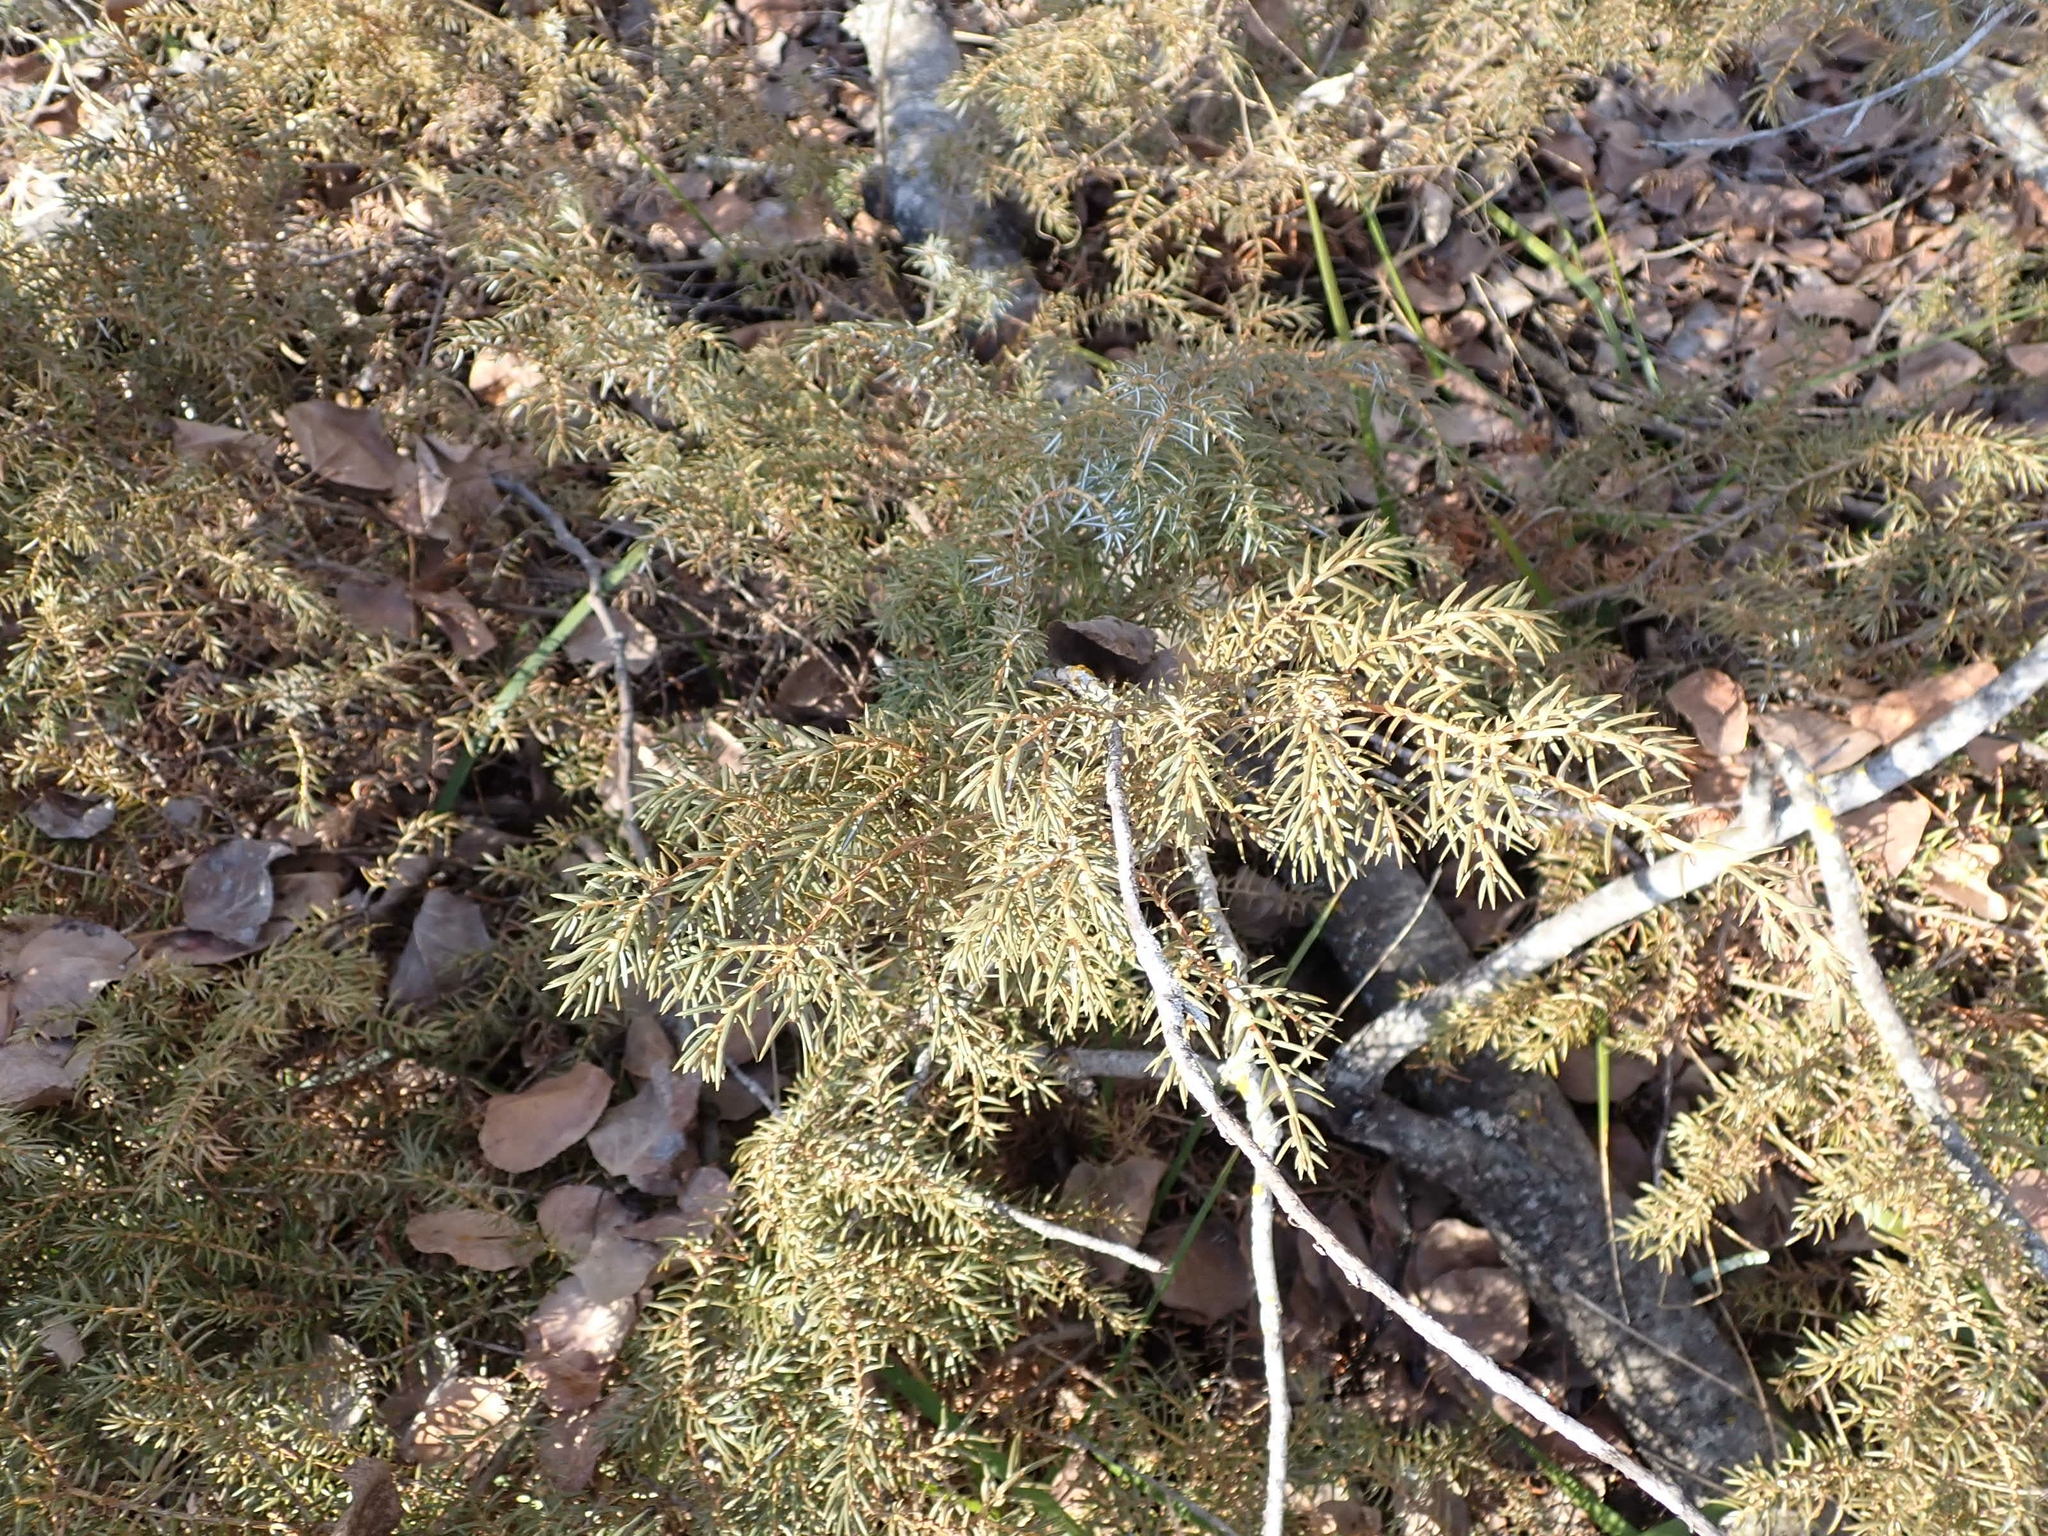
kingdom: Plantae
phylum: Tracheophyta
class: Pinopsida
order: Pinales
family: Cupressaceae
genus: Juniperus
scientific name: Juniperus communis
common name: Common juniper
